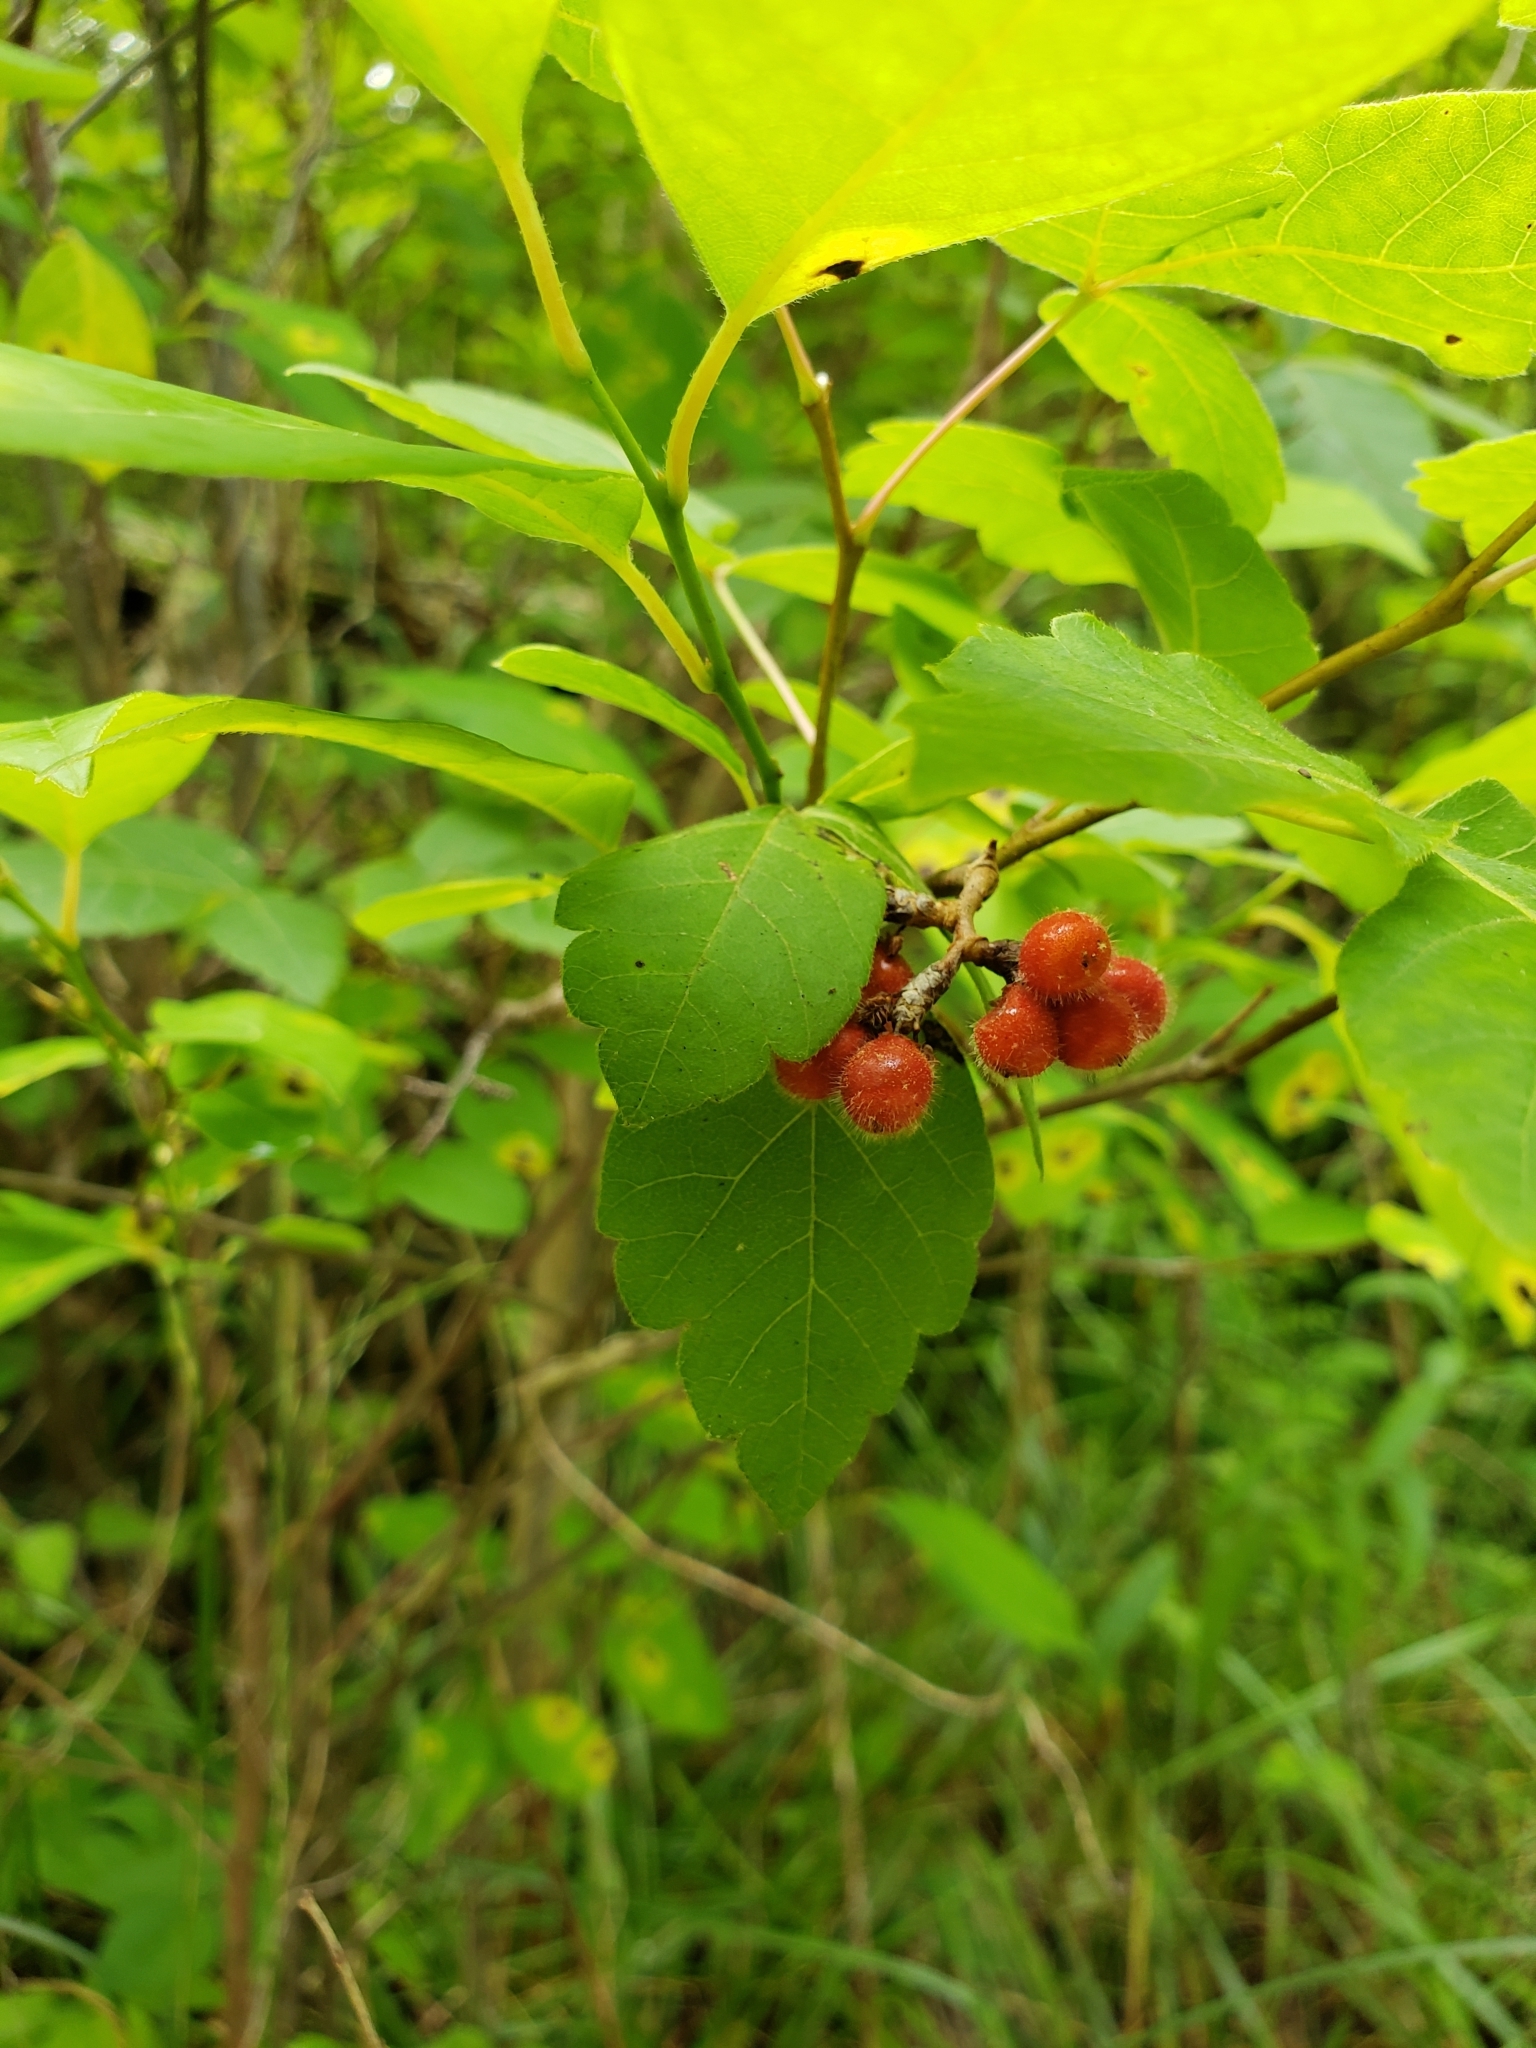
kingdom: Plantae
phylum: Tracheophyta
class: Magnoliopsida
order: Sapindales
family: Anacardiaceae
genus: Rhus
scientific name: Rhus aromatica
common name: Aromatic sumac
